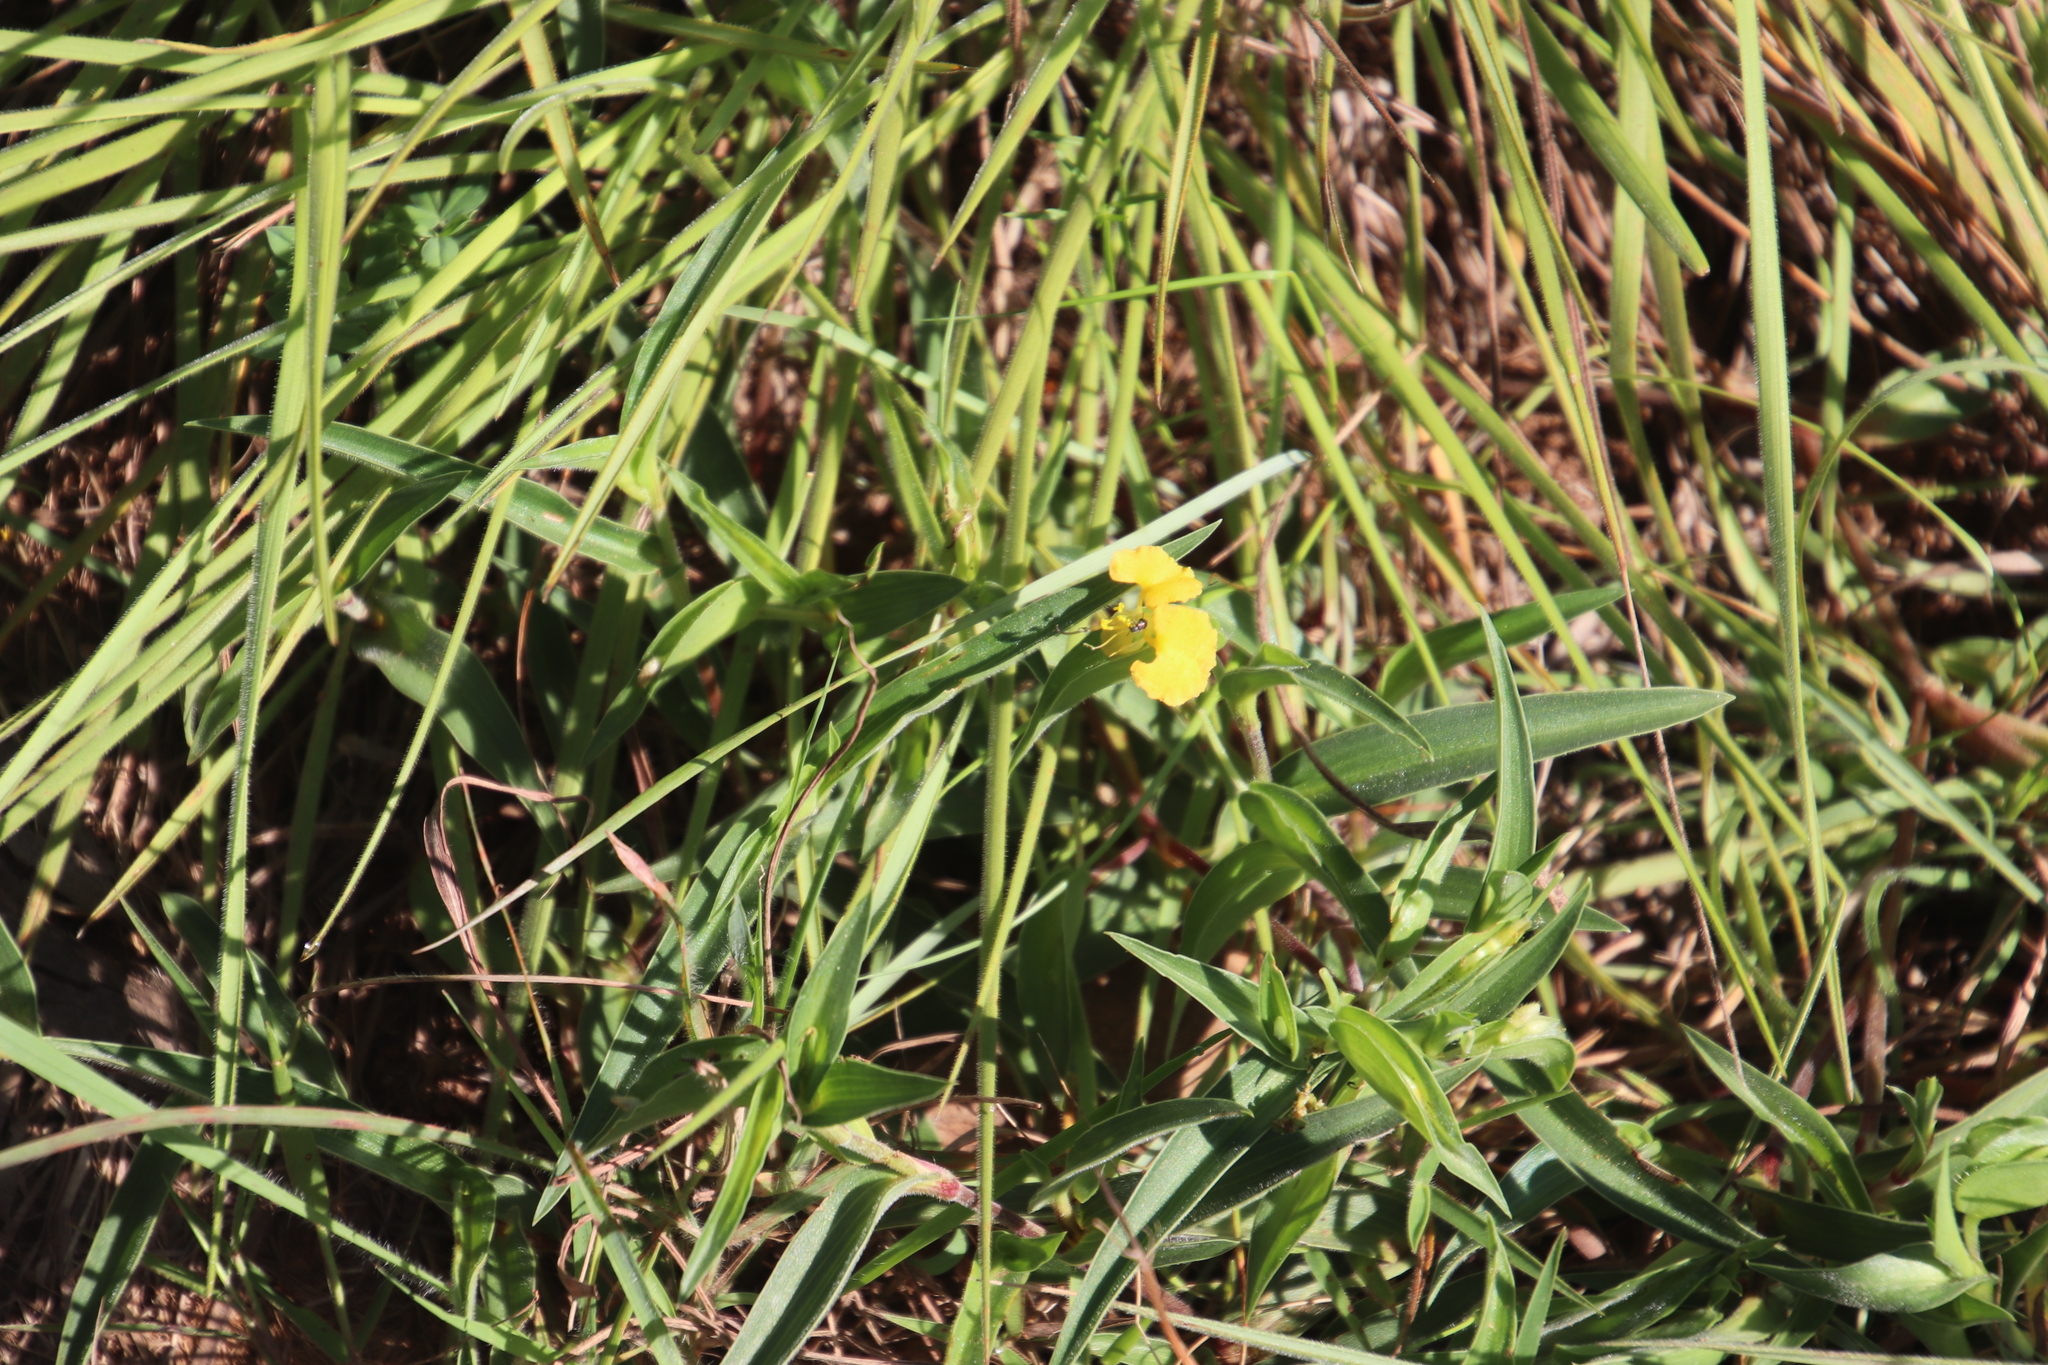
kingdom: Plantae
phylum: Tracheophyta
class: Liliopsida
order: Commelinales
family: Commelinaceae
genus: Commelina
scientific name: Commelina africana
